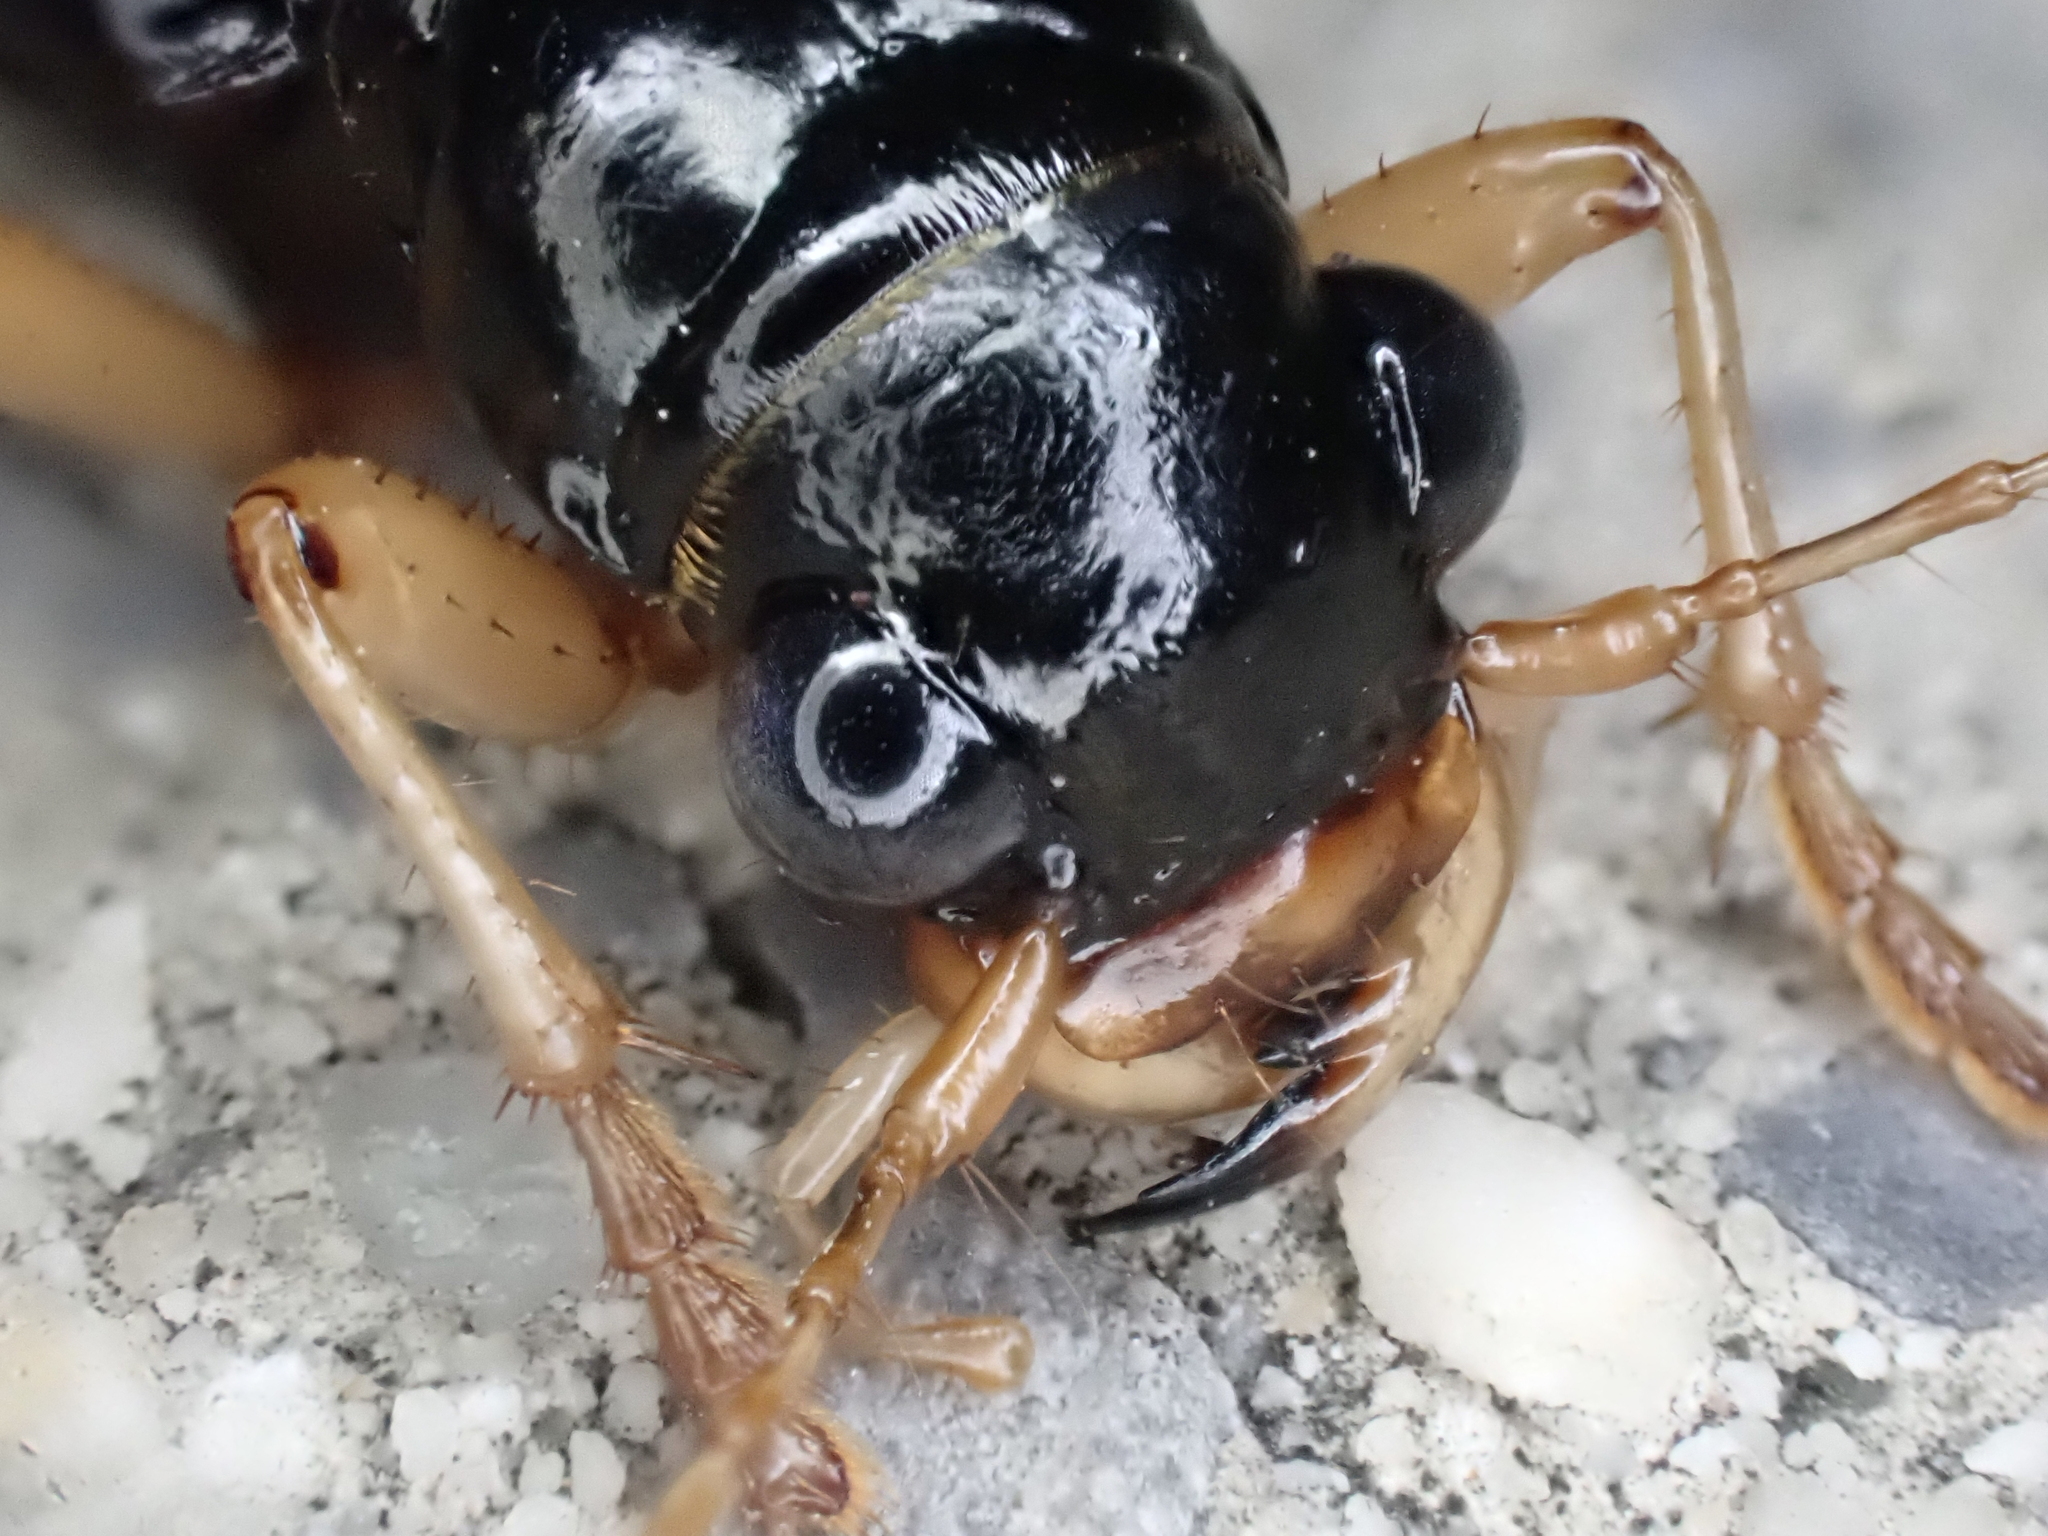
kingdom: Animalia
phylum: Arthropoda
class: Insecta
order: Coleoptera
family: Carabidae
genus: Tetracha
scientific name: Tetracha virginica
